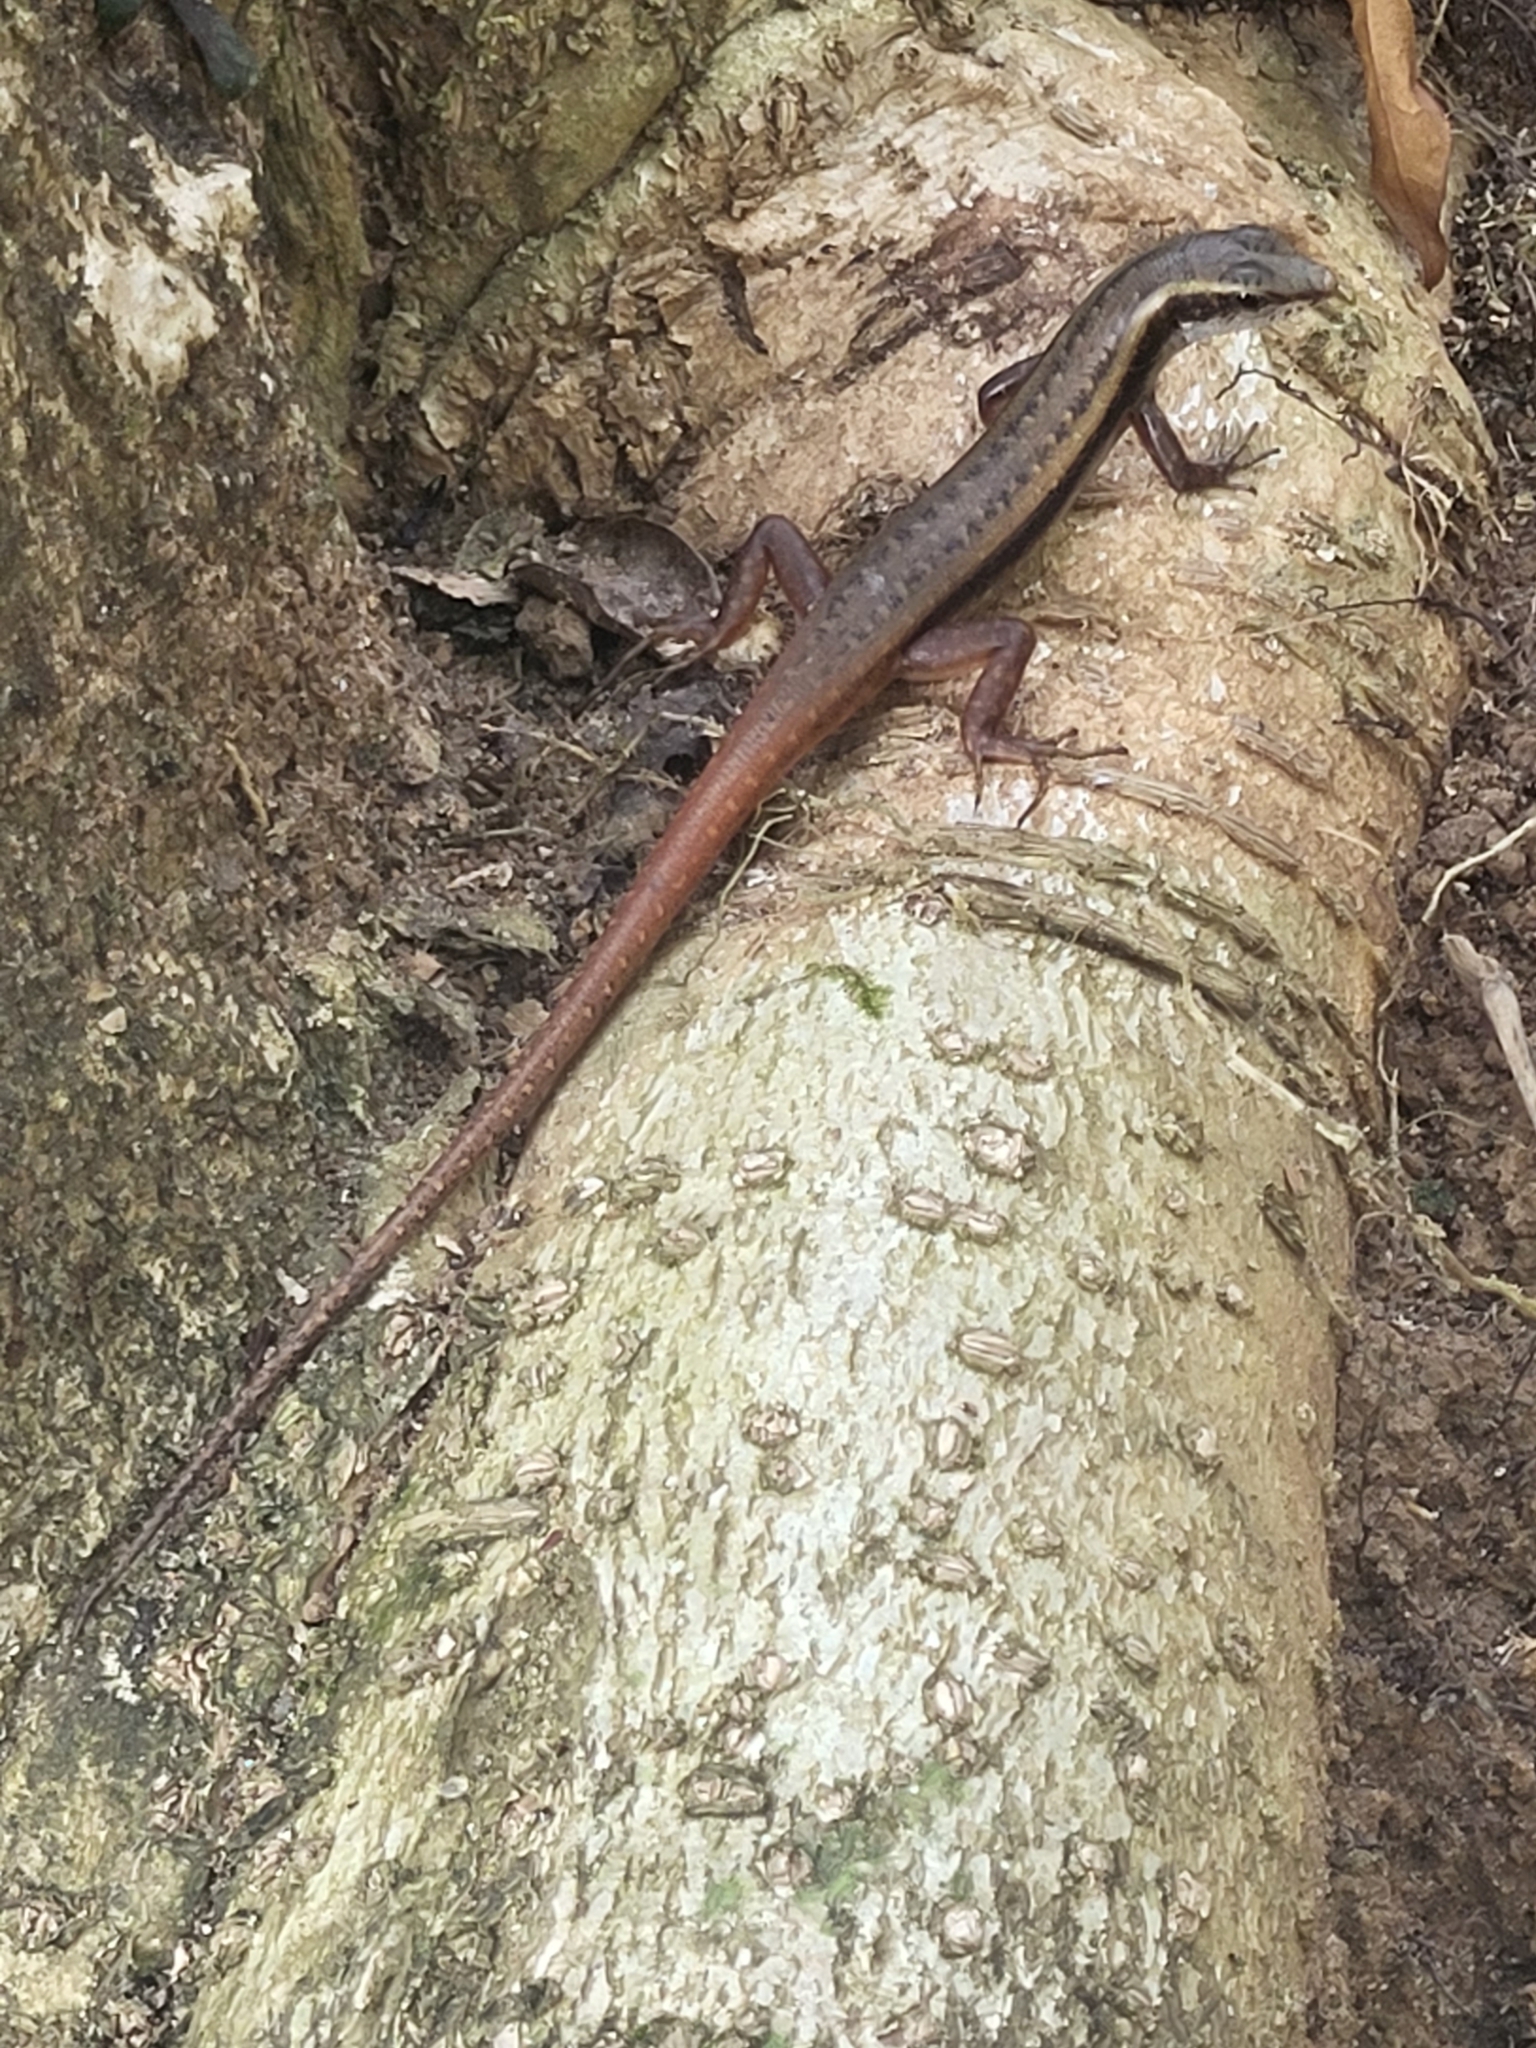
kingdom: Animalia
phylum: Chordata
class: Squamata
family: Scincidae
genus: Sphenomorphus
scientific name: Sphenomorphus dussumieri
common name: Dussumier's forest skink
